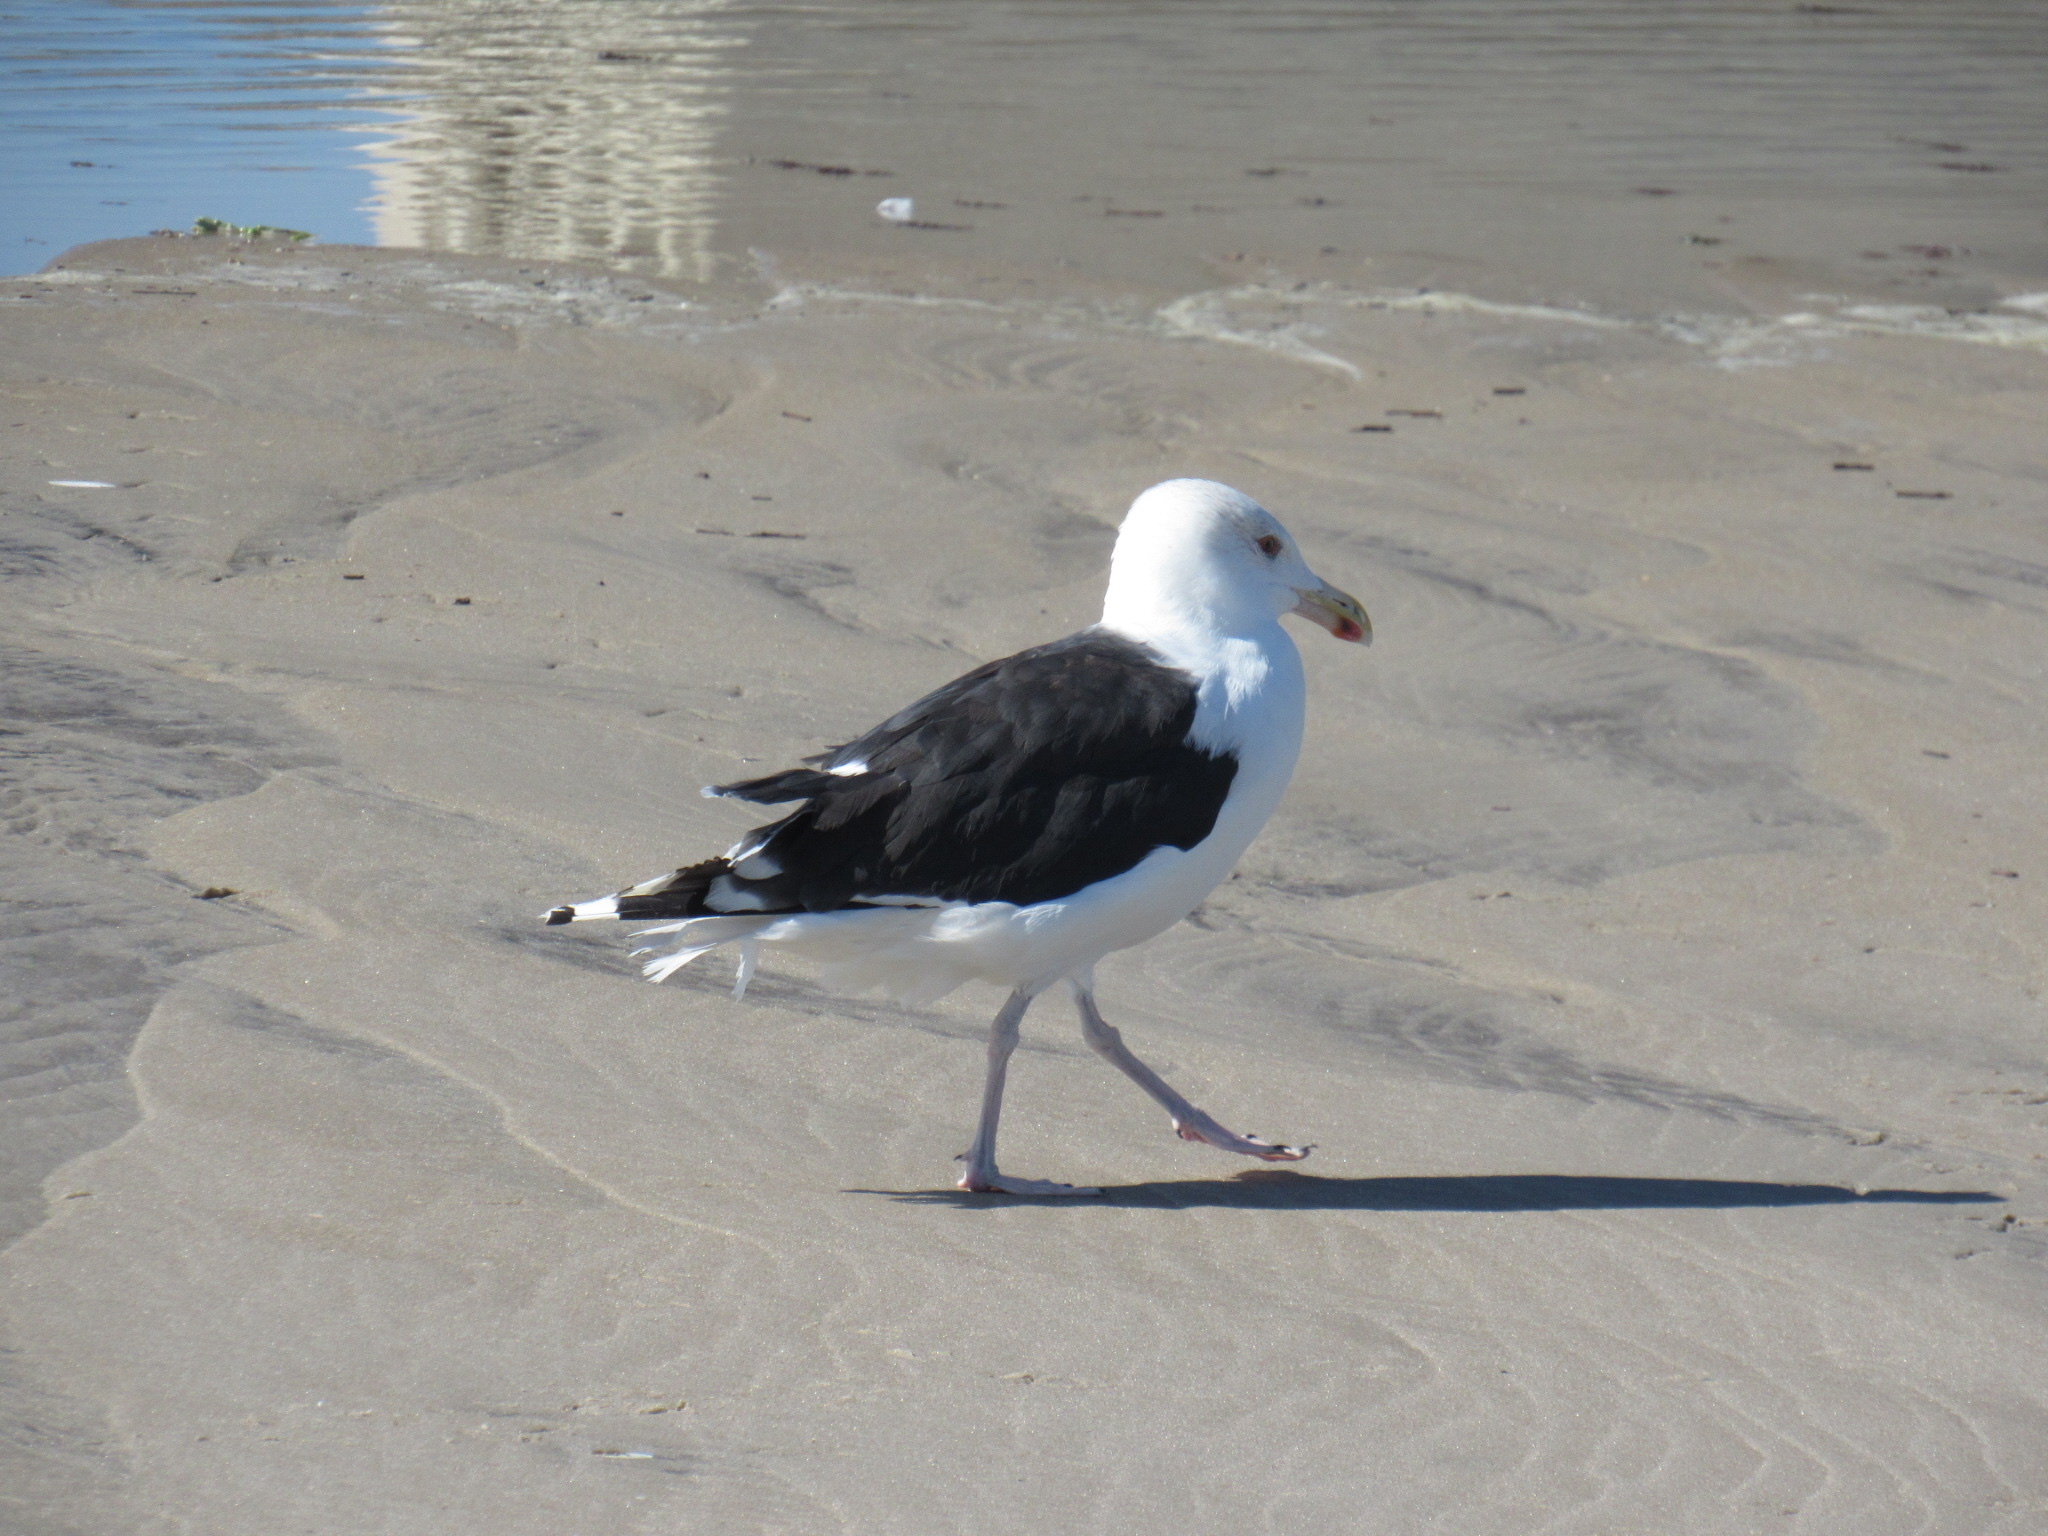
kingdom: Animalia
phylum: Chordata
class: Aves
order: Charadriiformes
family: Laridae
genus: Larus
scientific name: Larus marinus
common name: Great black-backed gull
